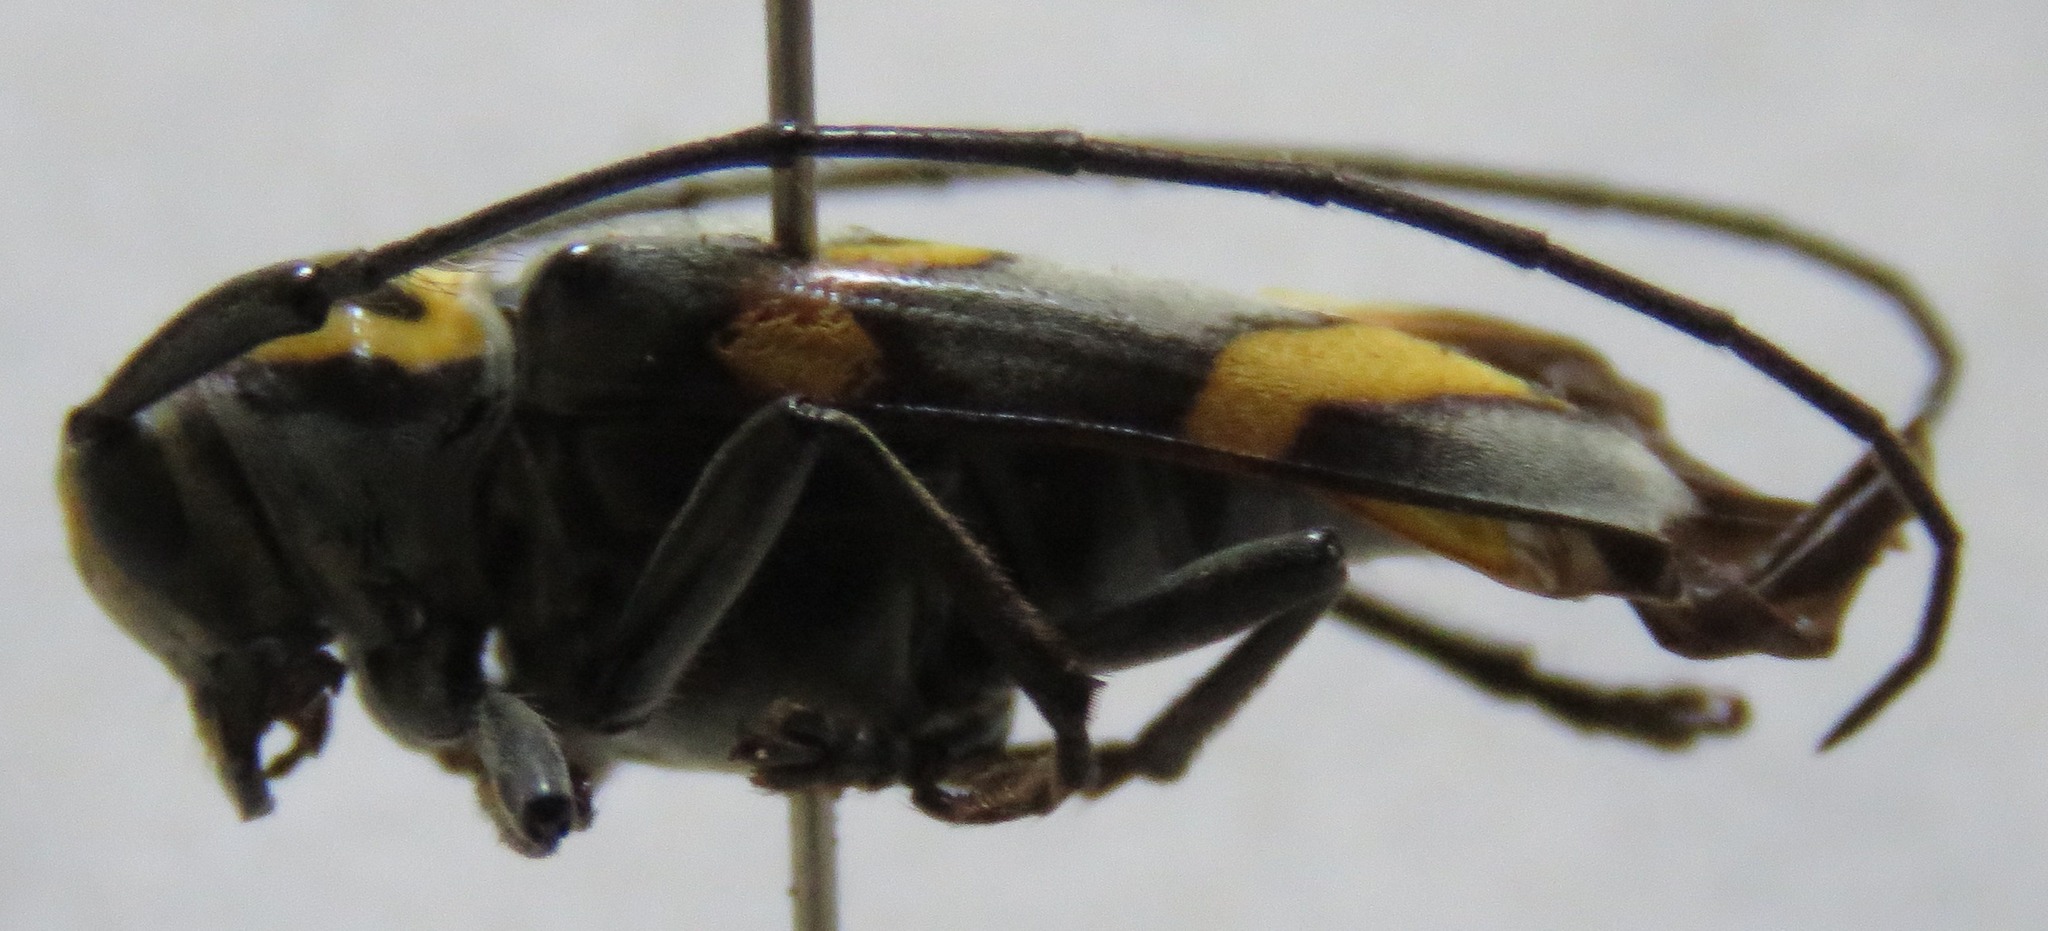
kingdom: Animalia
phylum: Arthropoda
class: Insecta
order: Coleoptera
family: Cerambycidae
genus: Oedudes
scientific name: Oedudes bifasciatus
